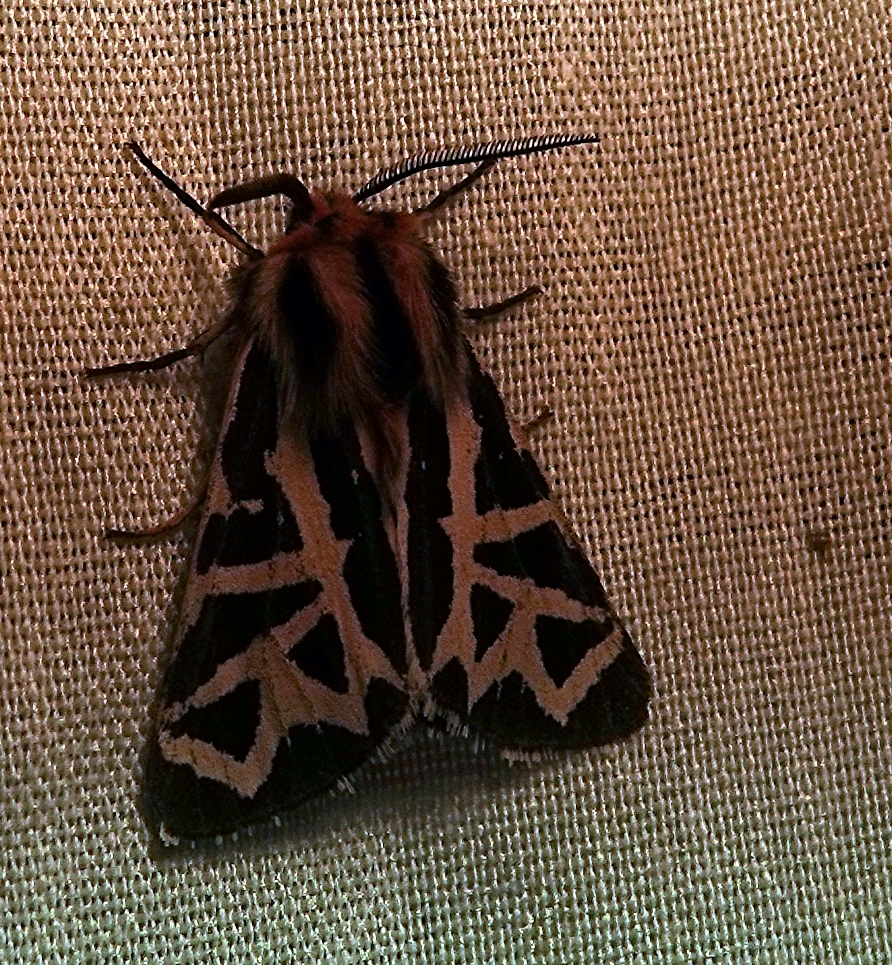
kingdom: Animalia
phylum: Arthropoda
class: Insecta
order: Lepidoptera
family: Erebidae
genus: Apantesis
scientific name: Apantesis
